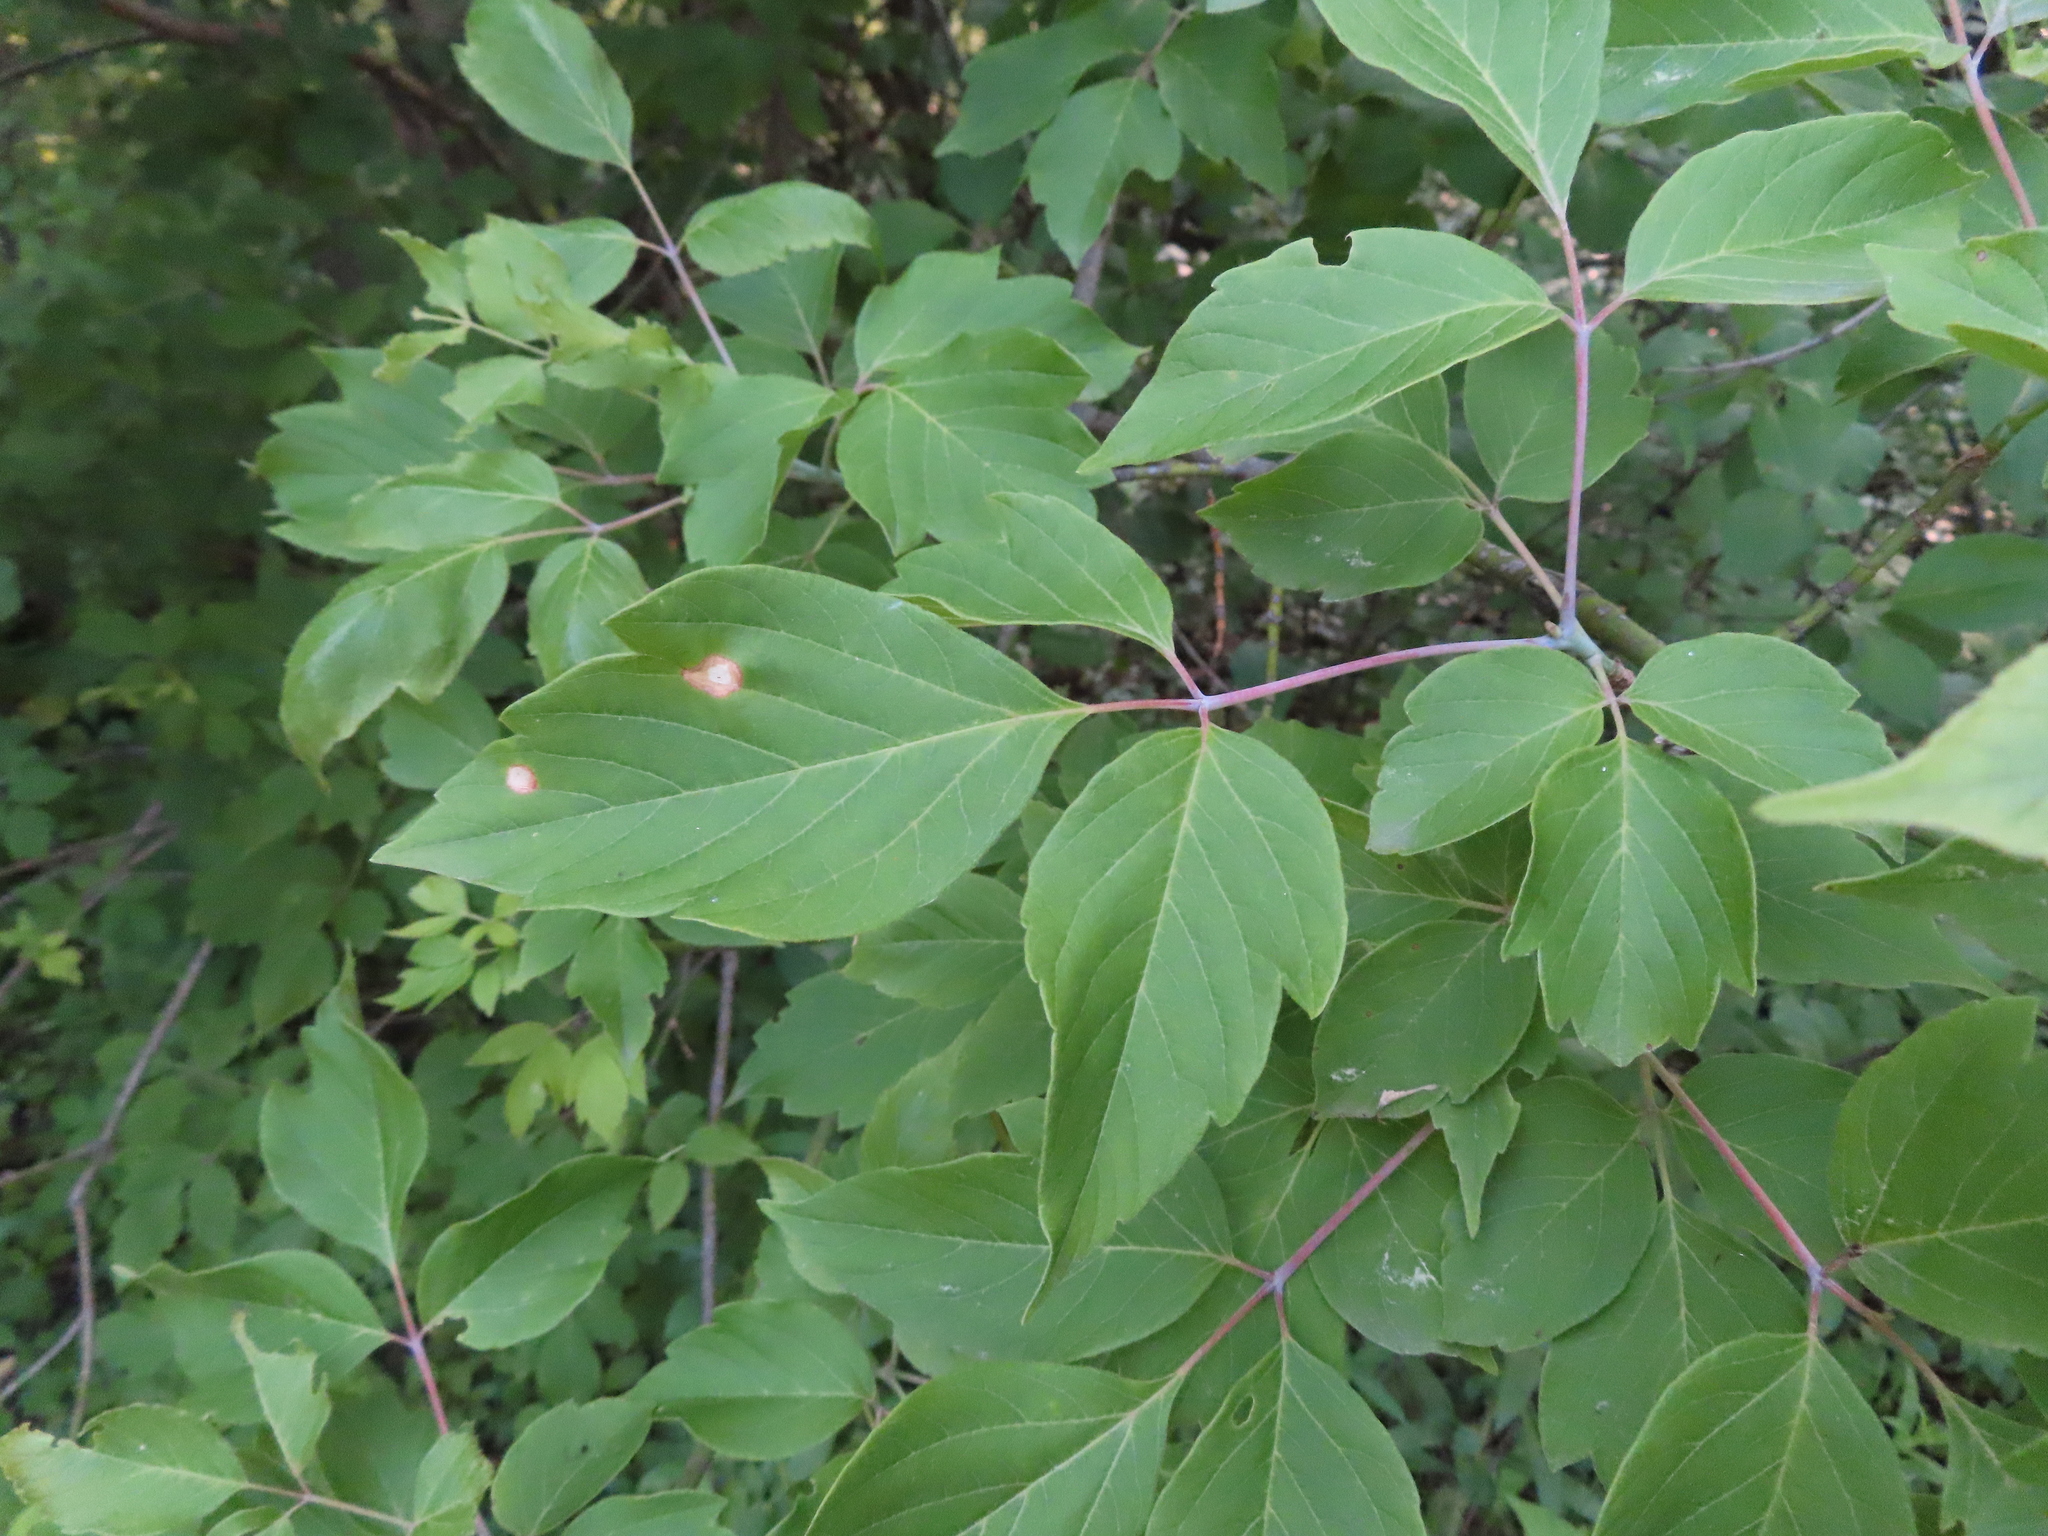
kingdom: Plantae
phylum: Tracheophyta
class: Magnoliopsida
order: Sapindales
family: Sapindaceae
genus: Acer
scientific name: Acer negundo
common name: Ashleaf maple
